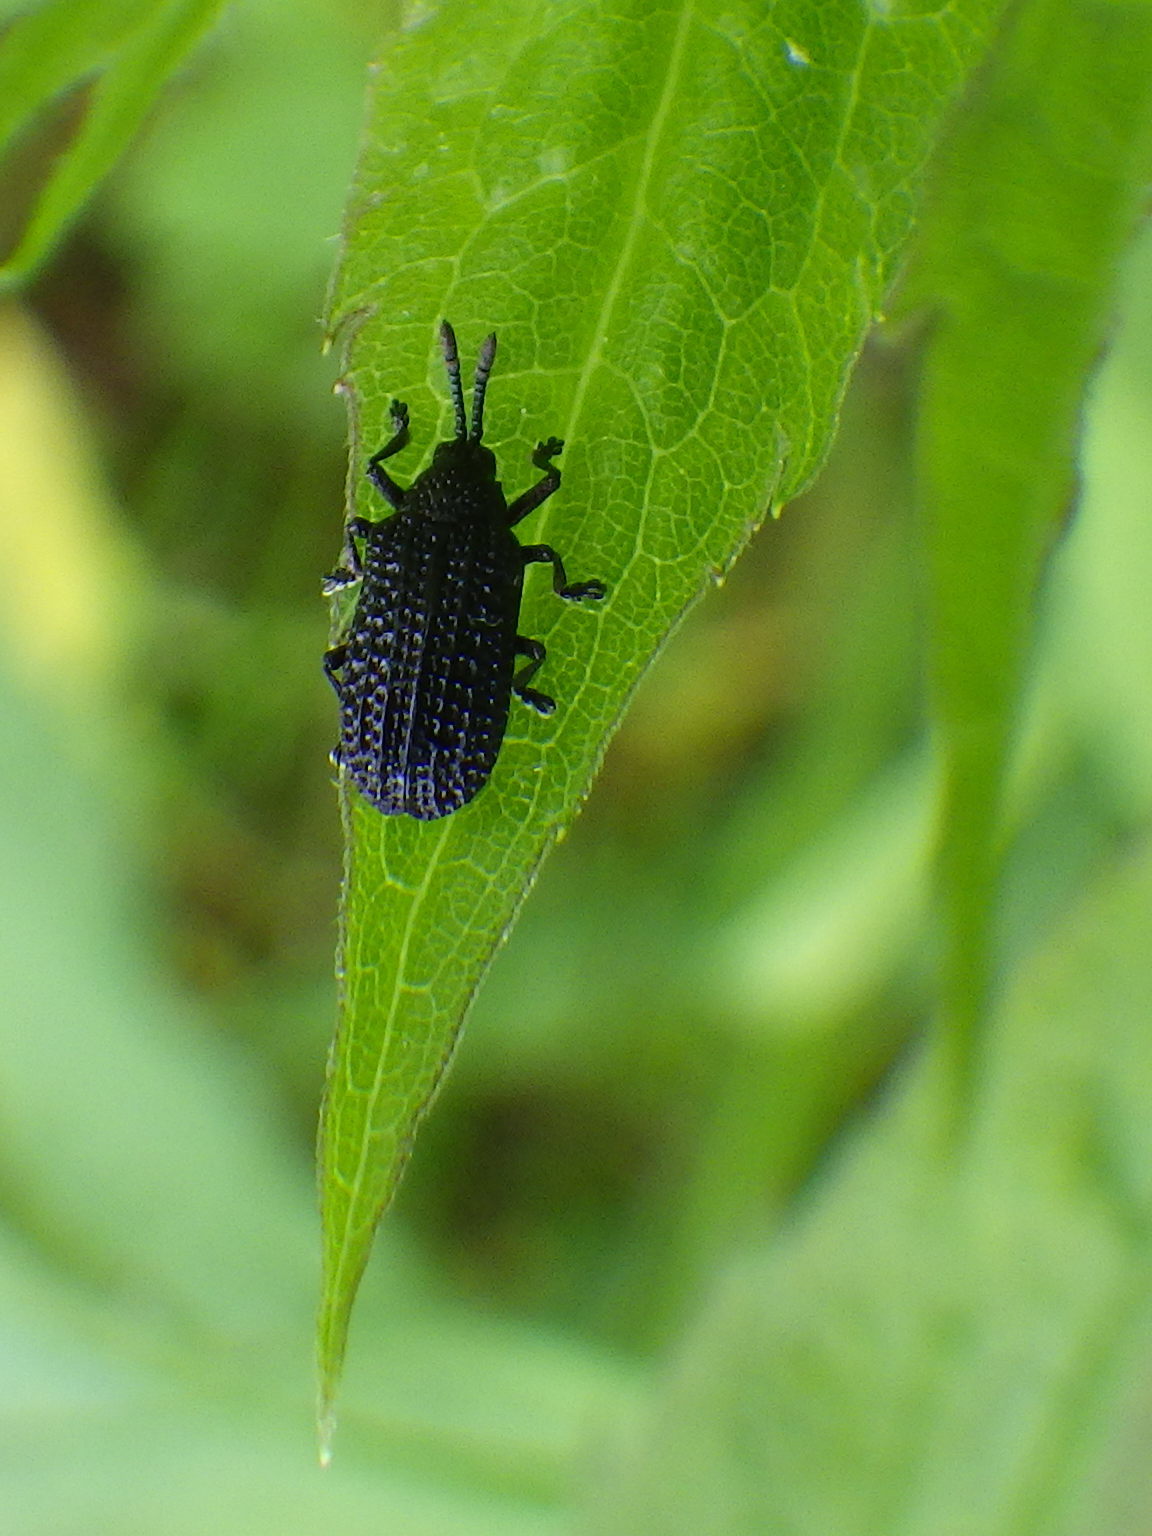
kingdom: Animalia
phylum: Arthropoda
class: Insecta
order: Coleoptera
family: Chrysomelidae
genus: Microrhopala
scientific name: Microrhopala excavata
